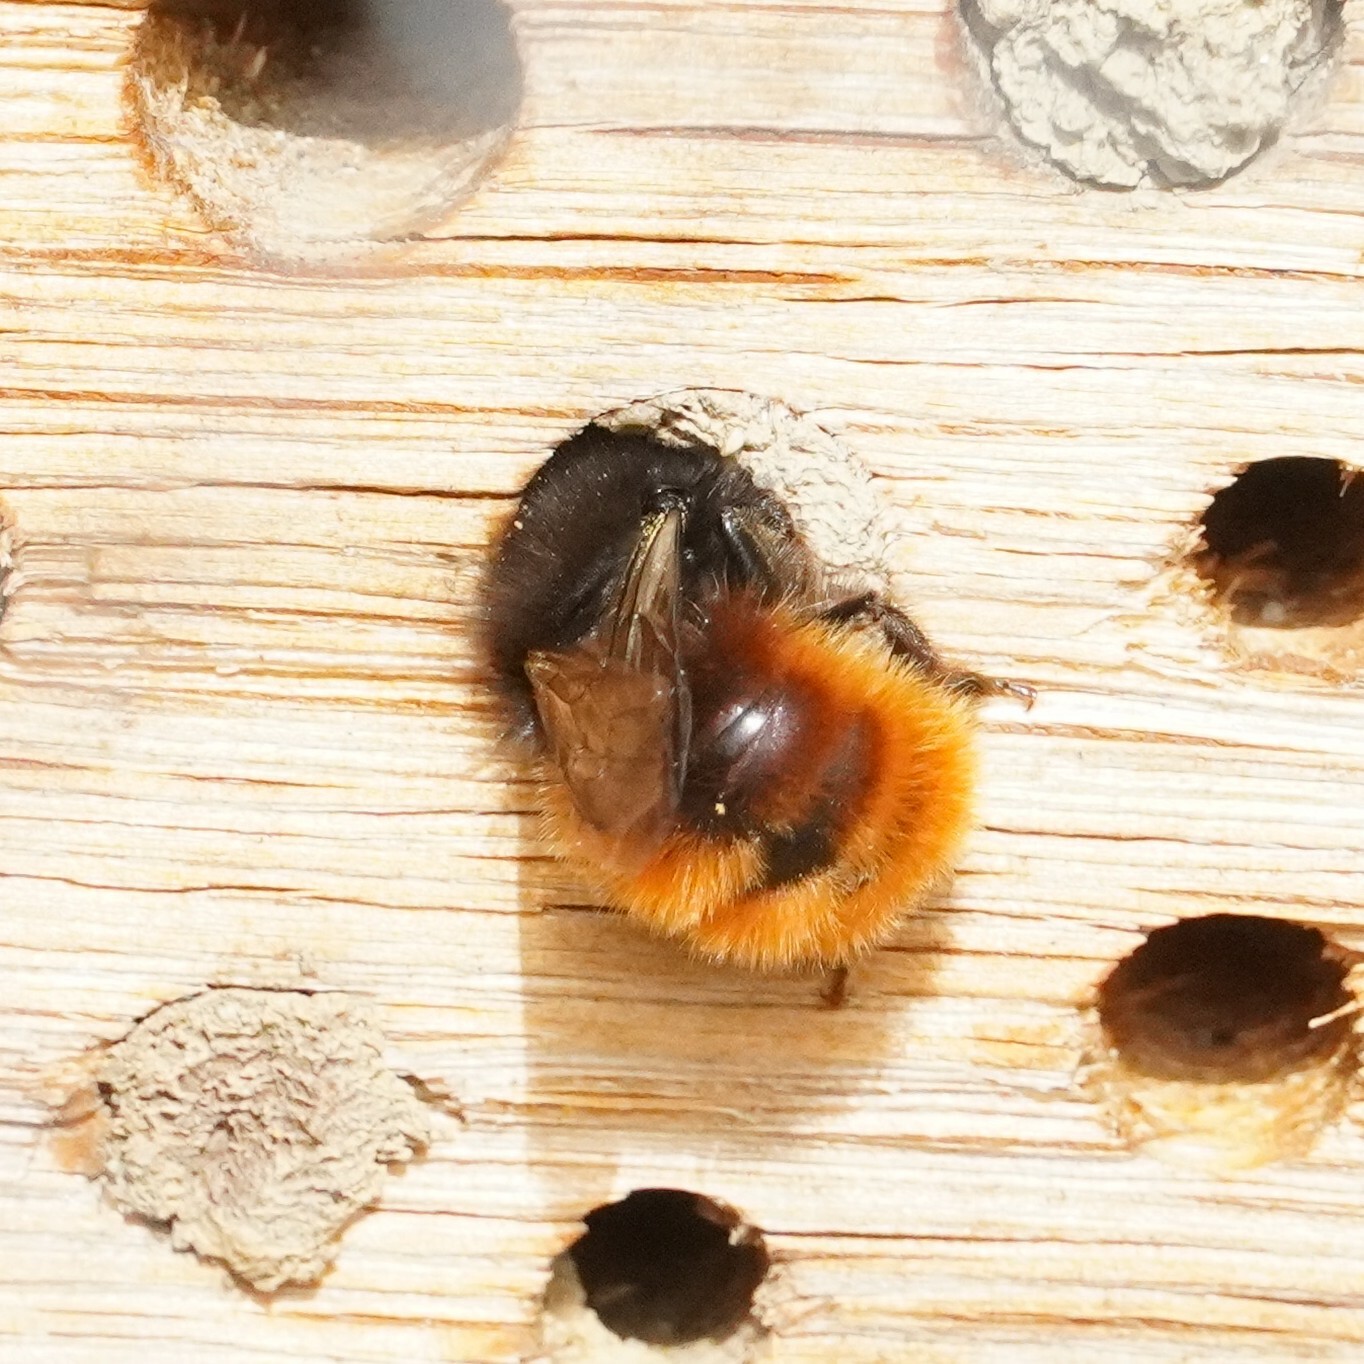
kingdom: Animalia
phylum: Arthropoda
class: Insecta
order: Hymenoptera
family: Megachilidae
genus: Osmia
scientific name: Osmia cornuta
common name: Mason bee
